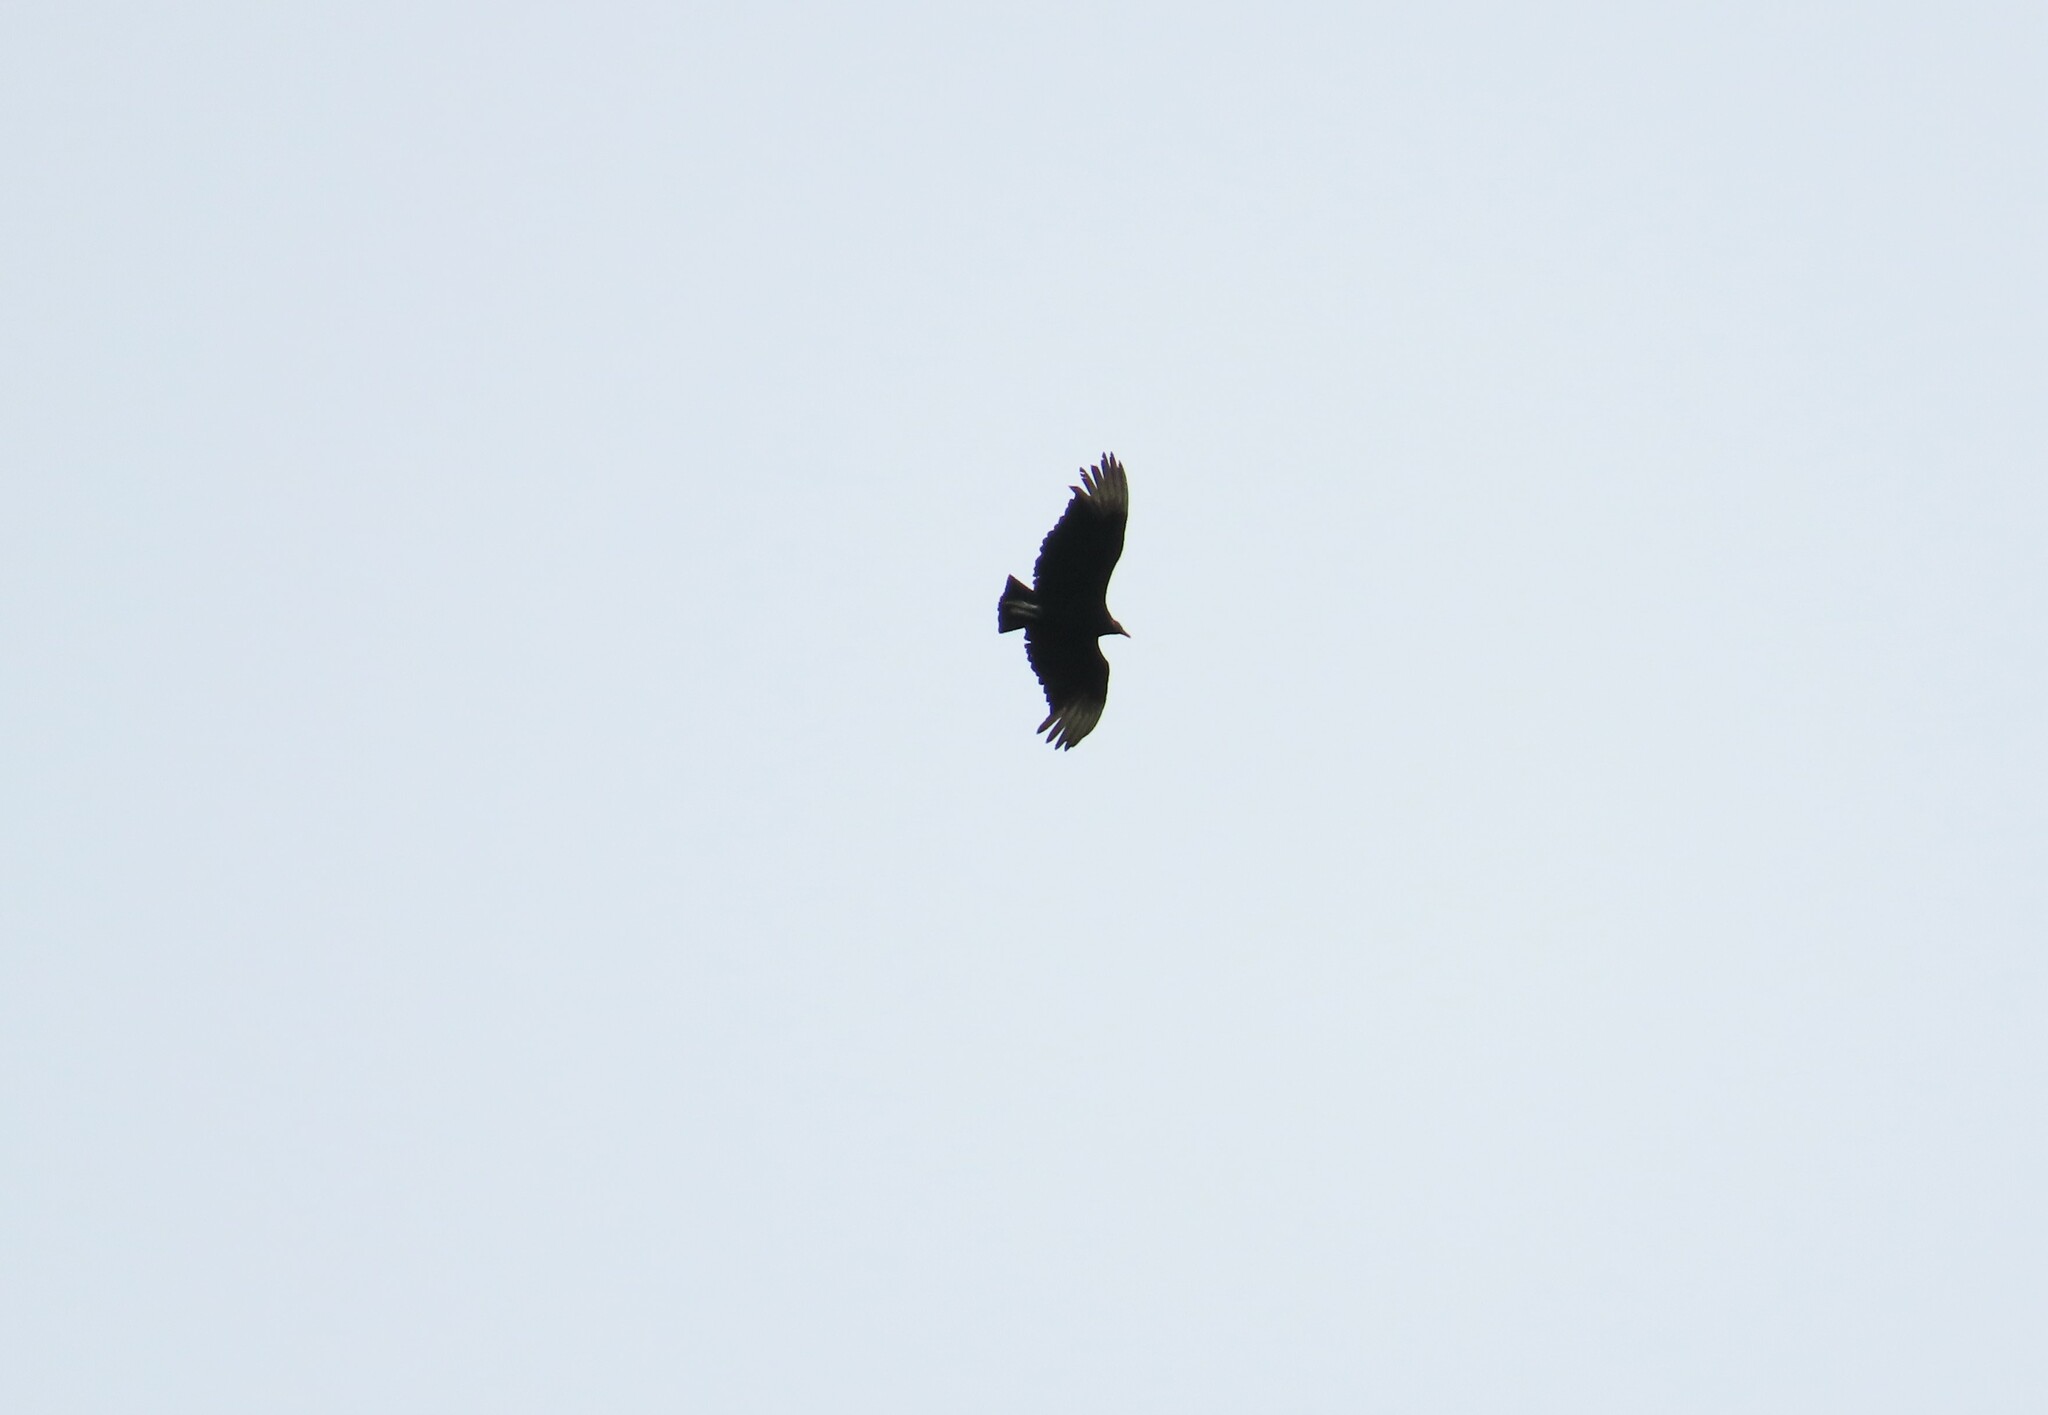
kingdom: Animalia
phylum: Chordata
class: Aves
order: Accipitriformes
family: Cathartidae
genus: Coragyps
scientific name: Coragyps atratus
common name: Black vulture
